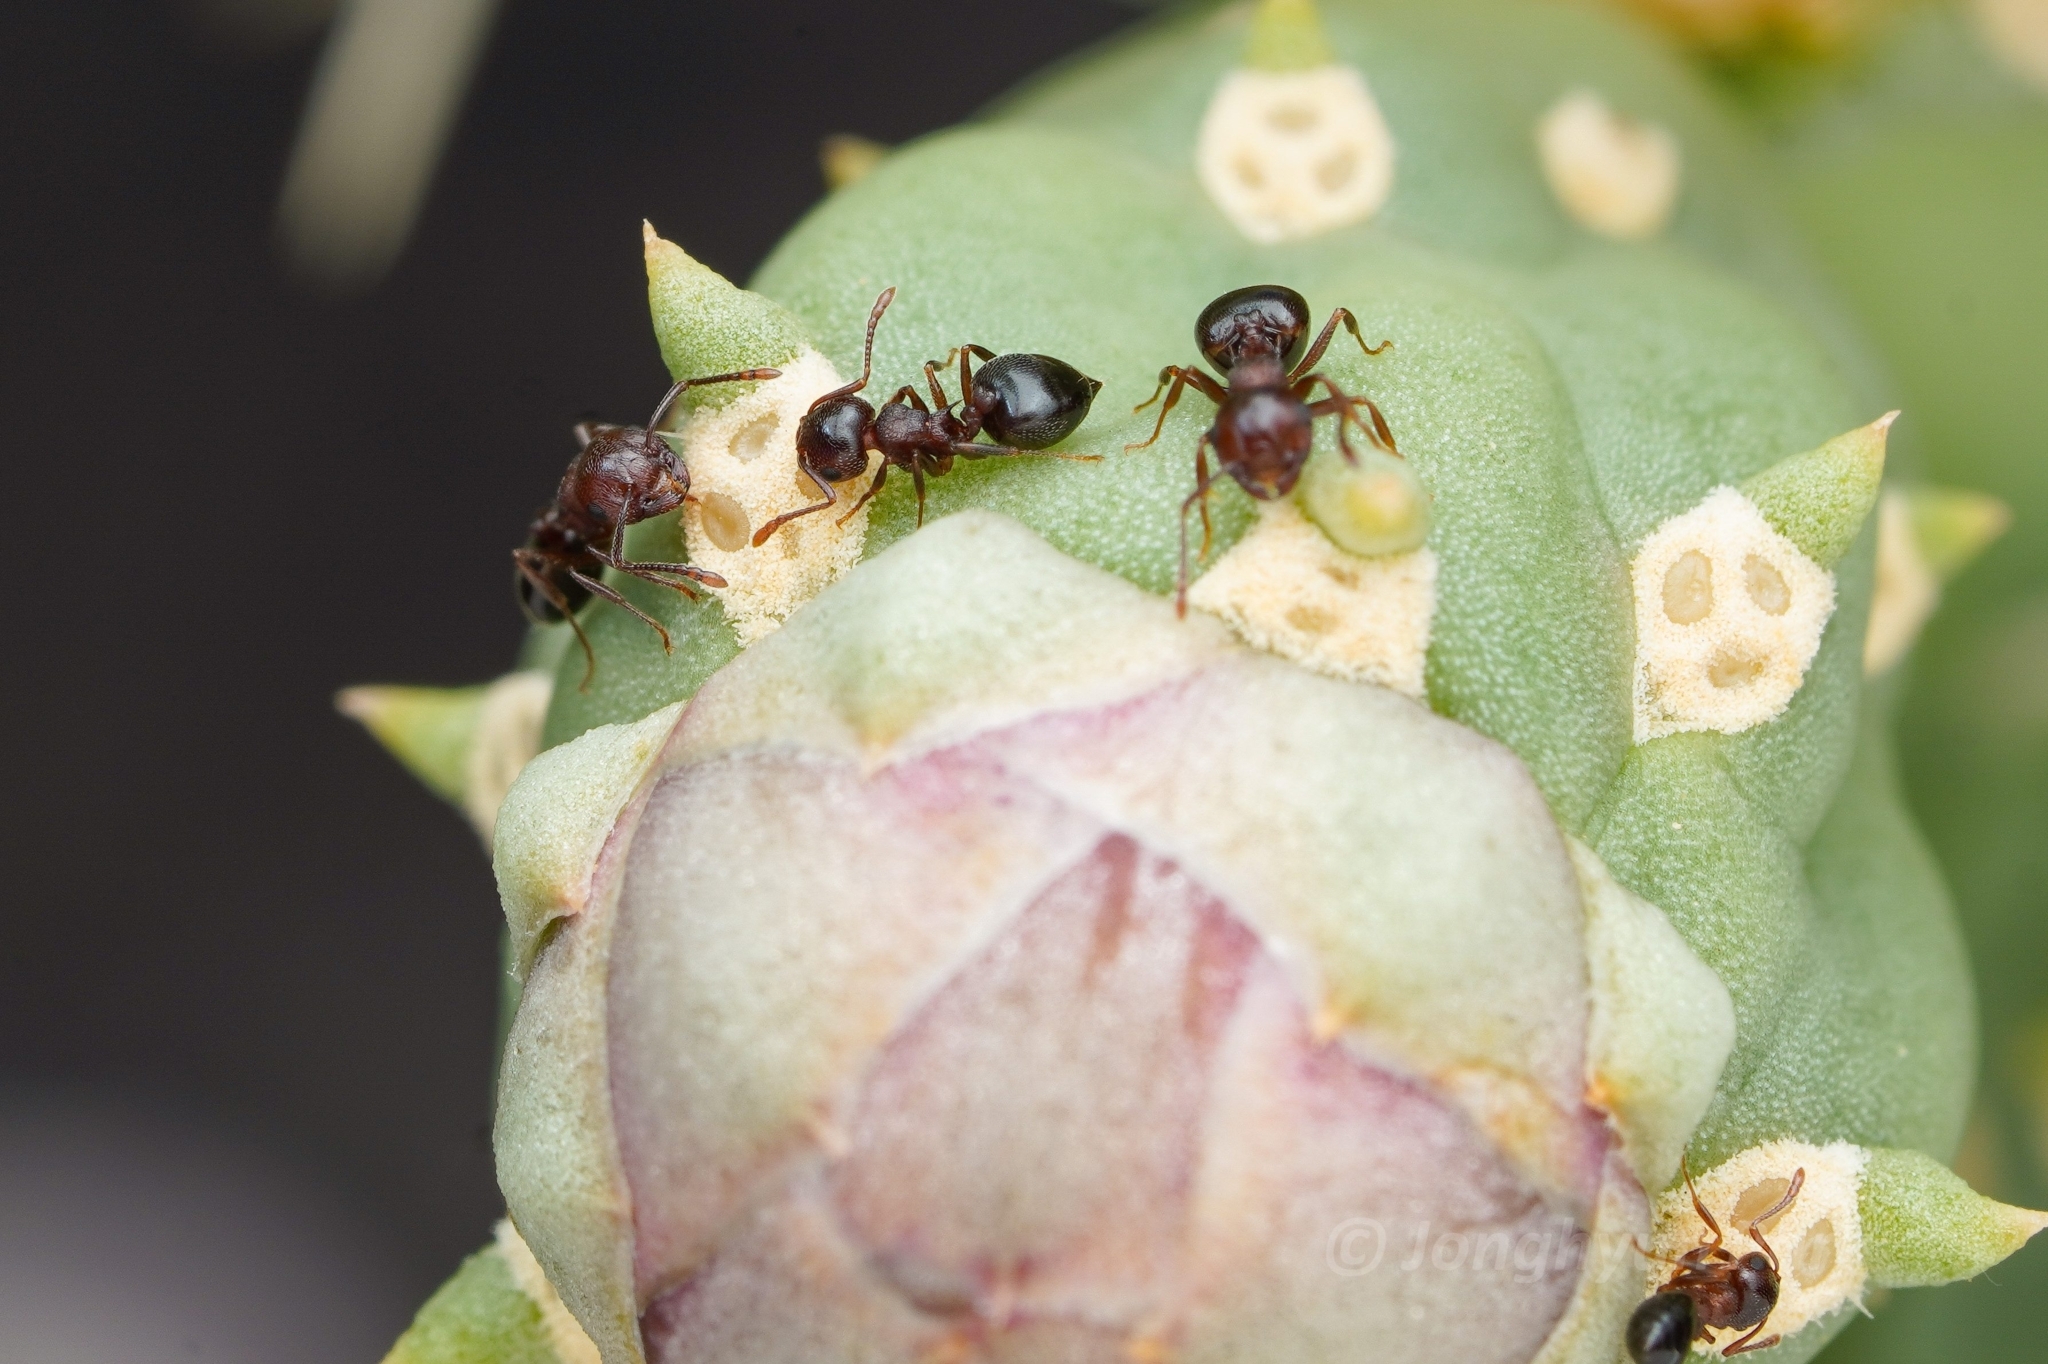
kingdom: Animalia
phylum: Arthropoda
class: Insecta
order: Hymenoptera
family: Formicidae
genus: Crematogaster
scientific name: Crematogaster depilis
